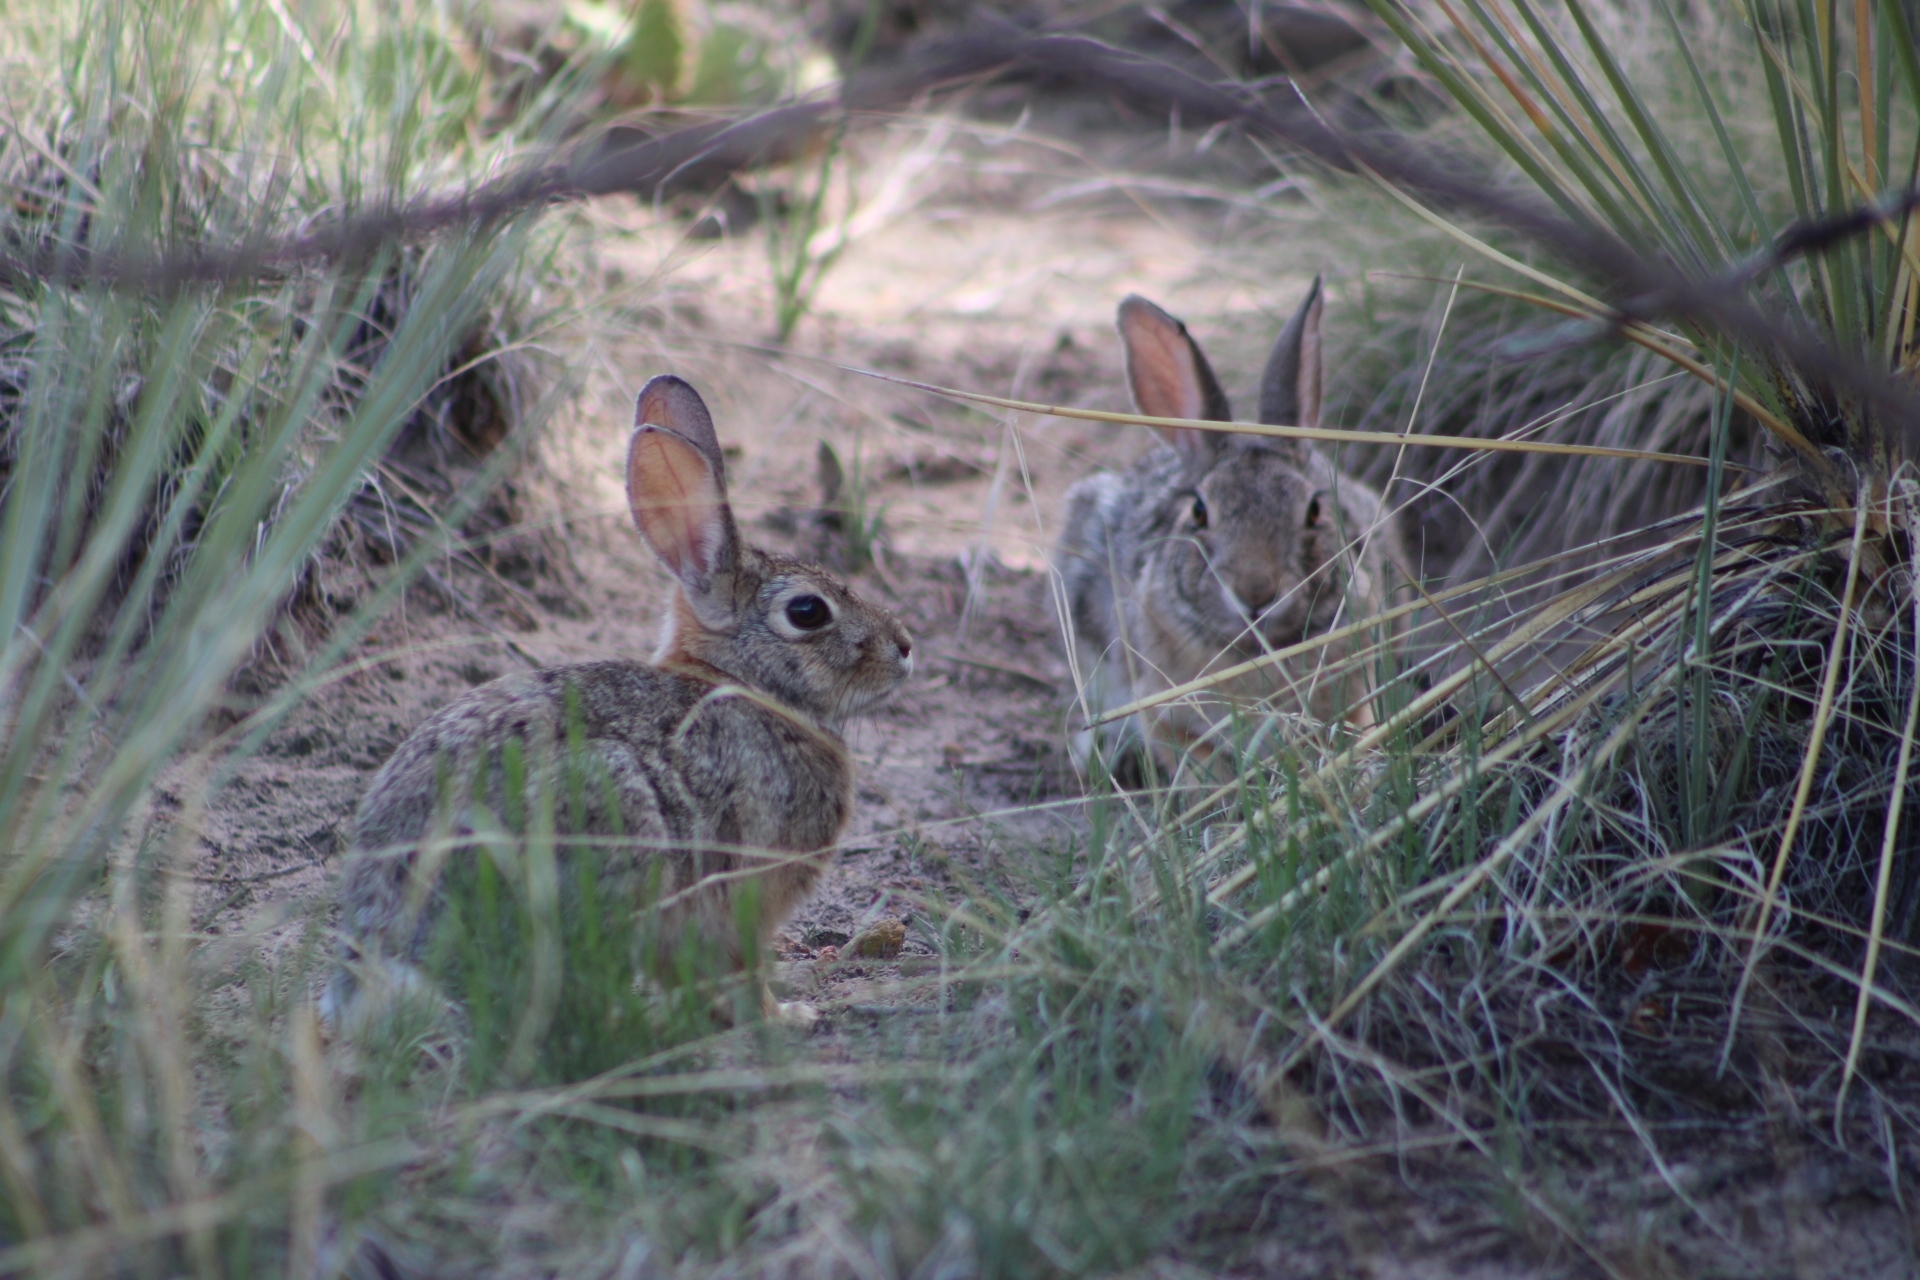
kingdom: Animalia
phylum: Chordata
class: Mammalia
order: Lagomorpha
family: Leporidae
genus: Sylvilagus
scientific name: Sylvilagus audubonii
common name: Desert cottontail
